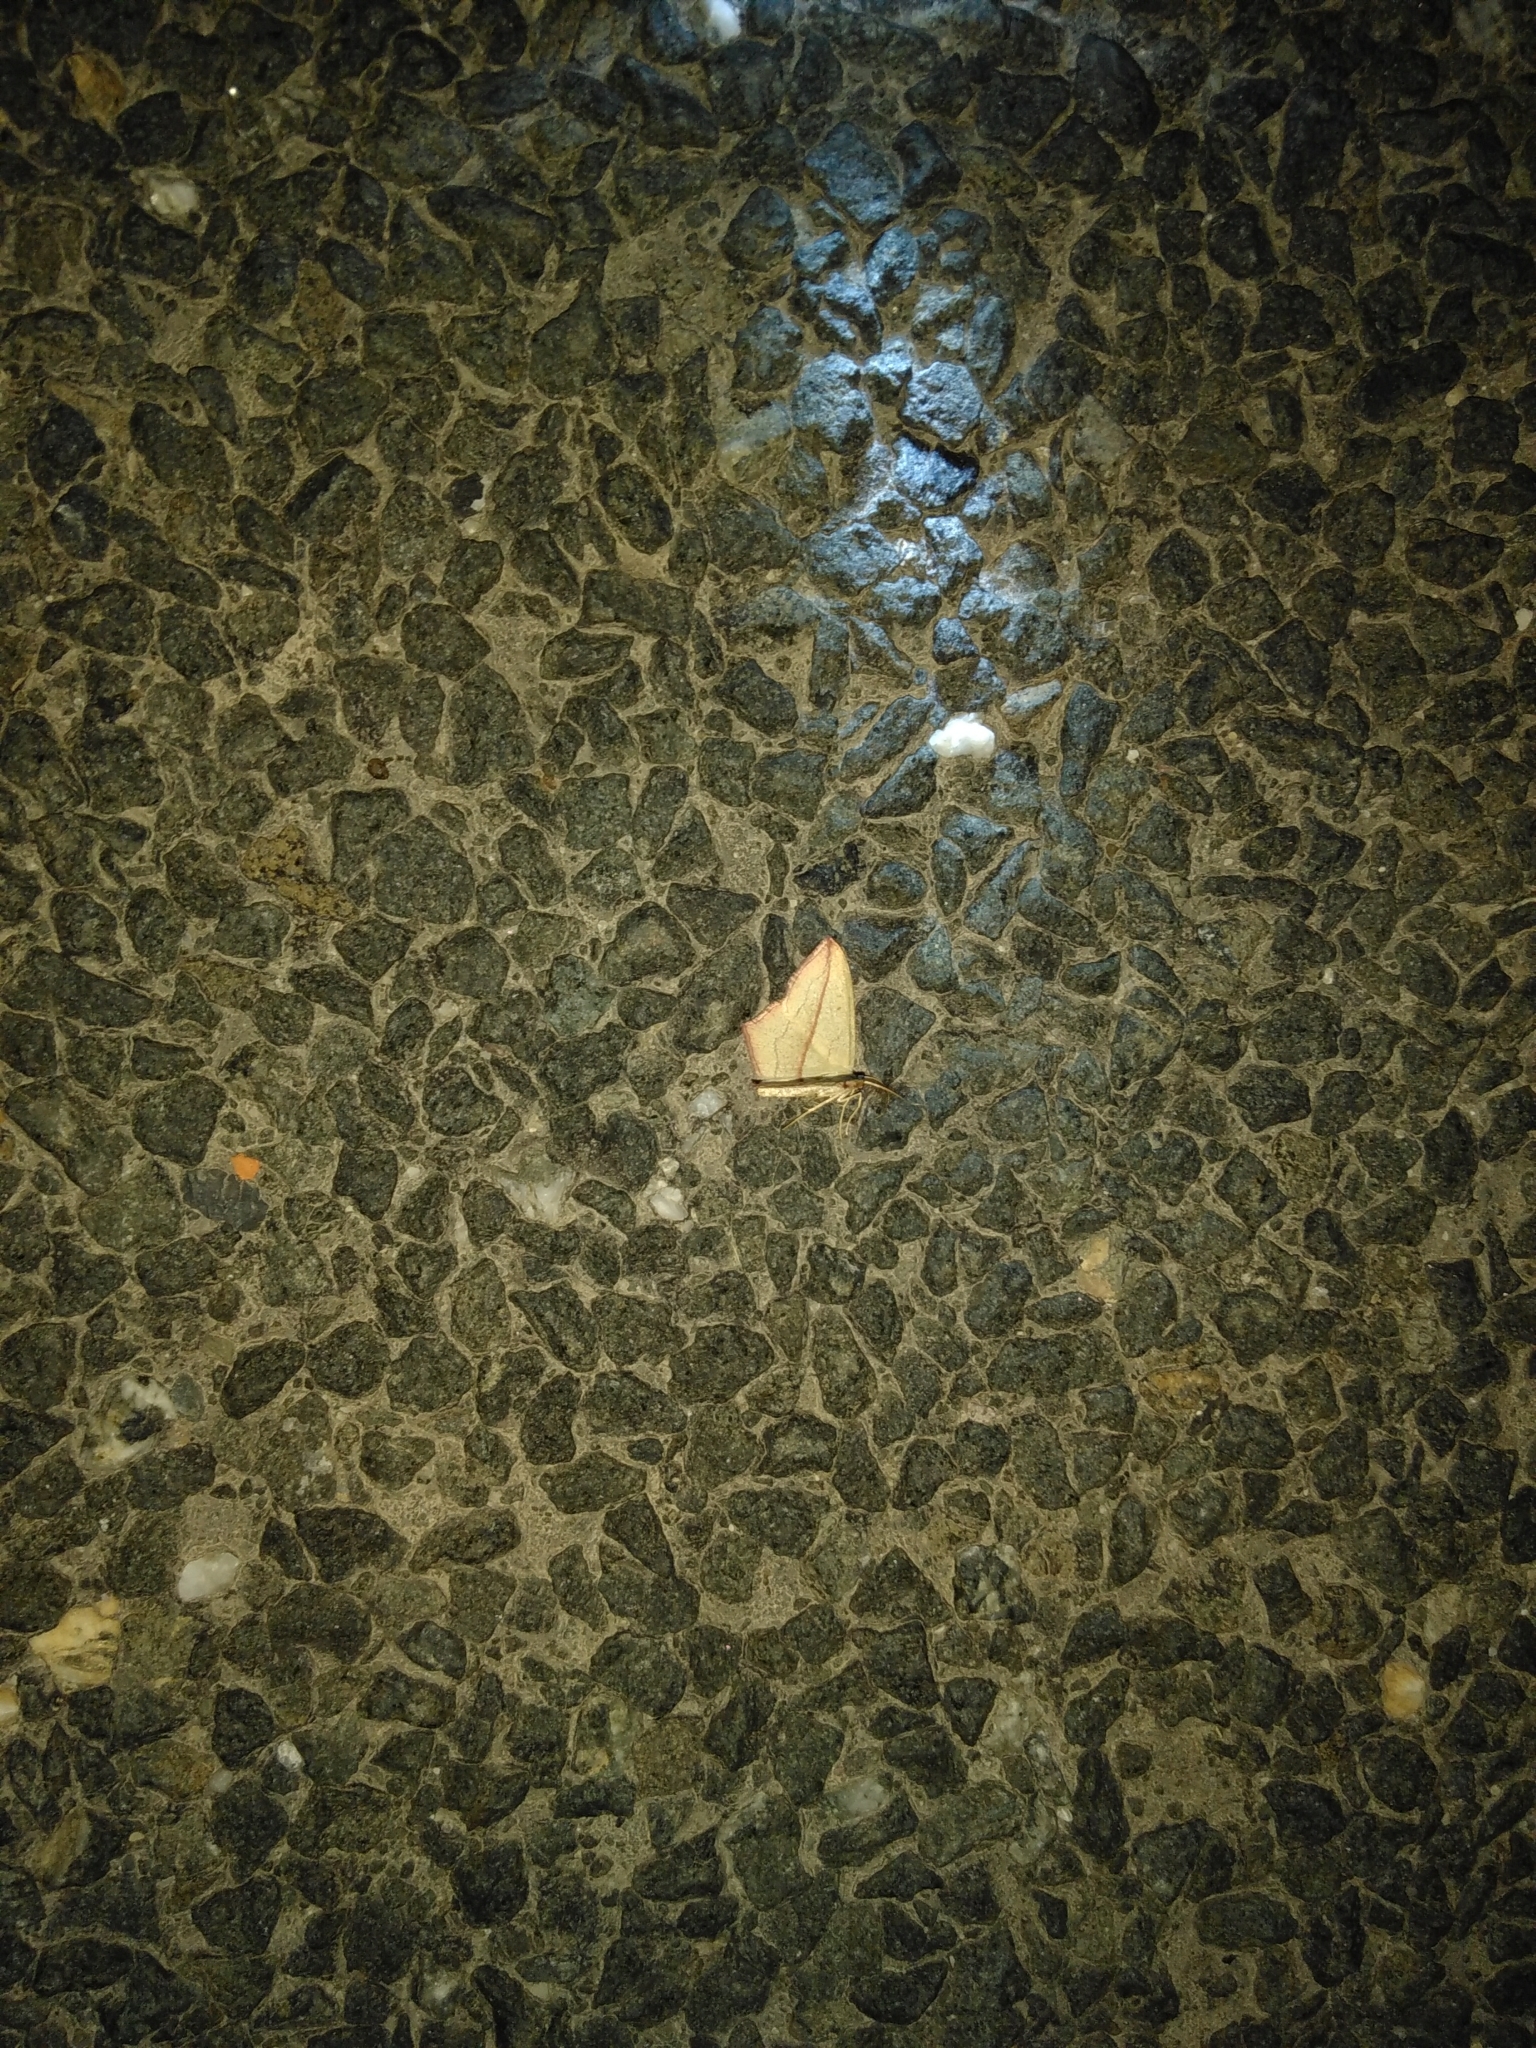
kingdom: Animalia
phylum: Arthropoda
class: Insecta
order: Lepidoptera
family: Geometridae
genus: Timandra
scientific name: Timandra comae
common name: Blood-vein
